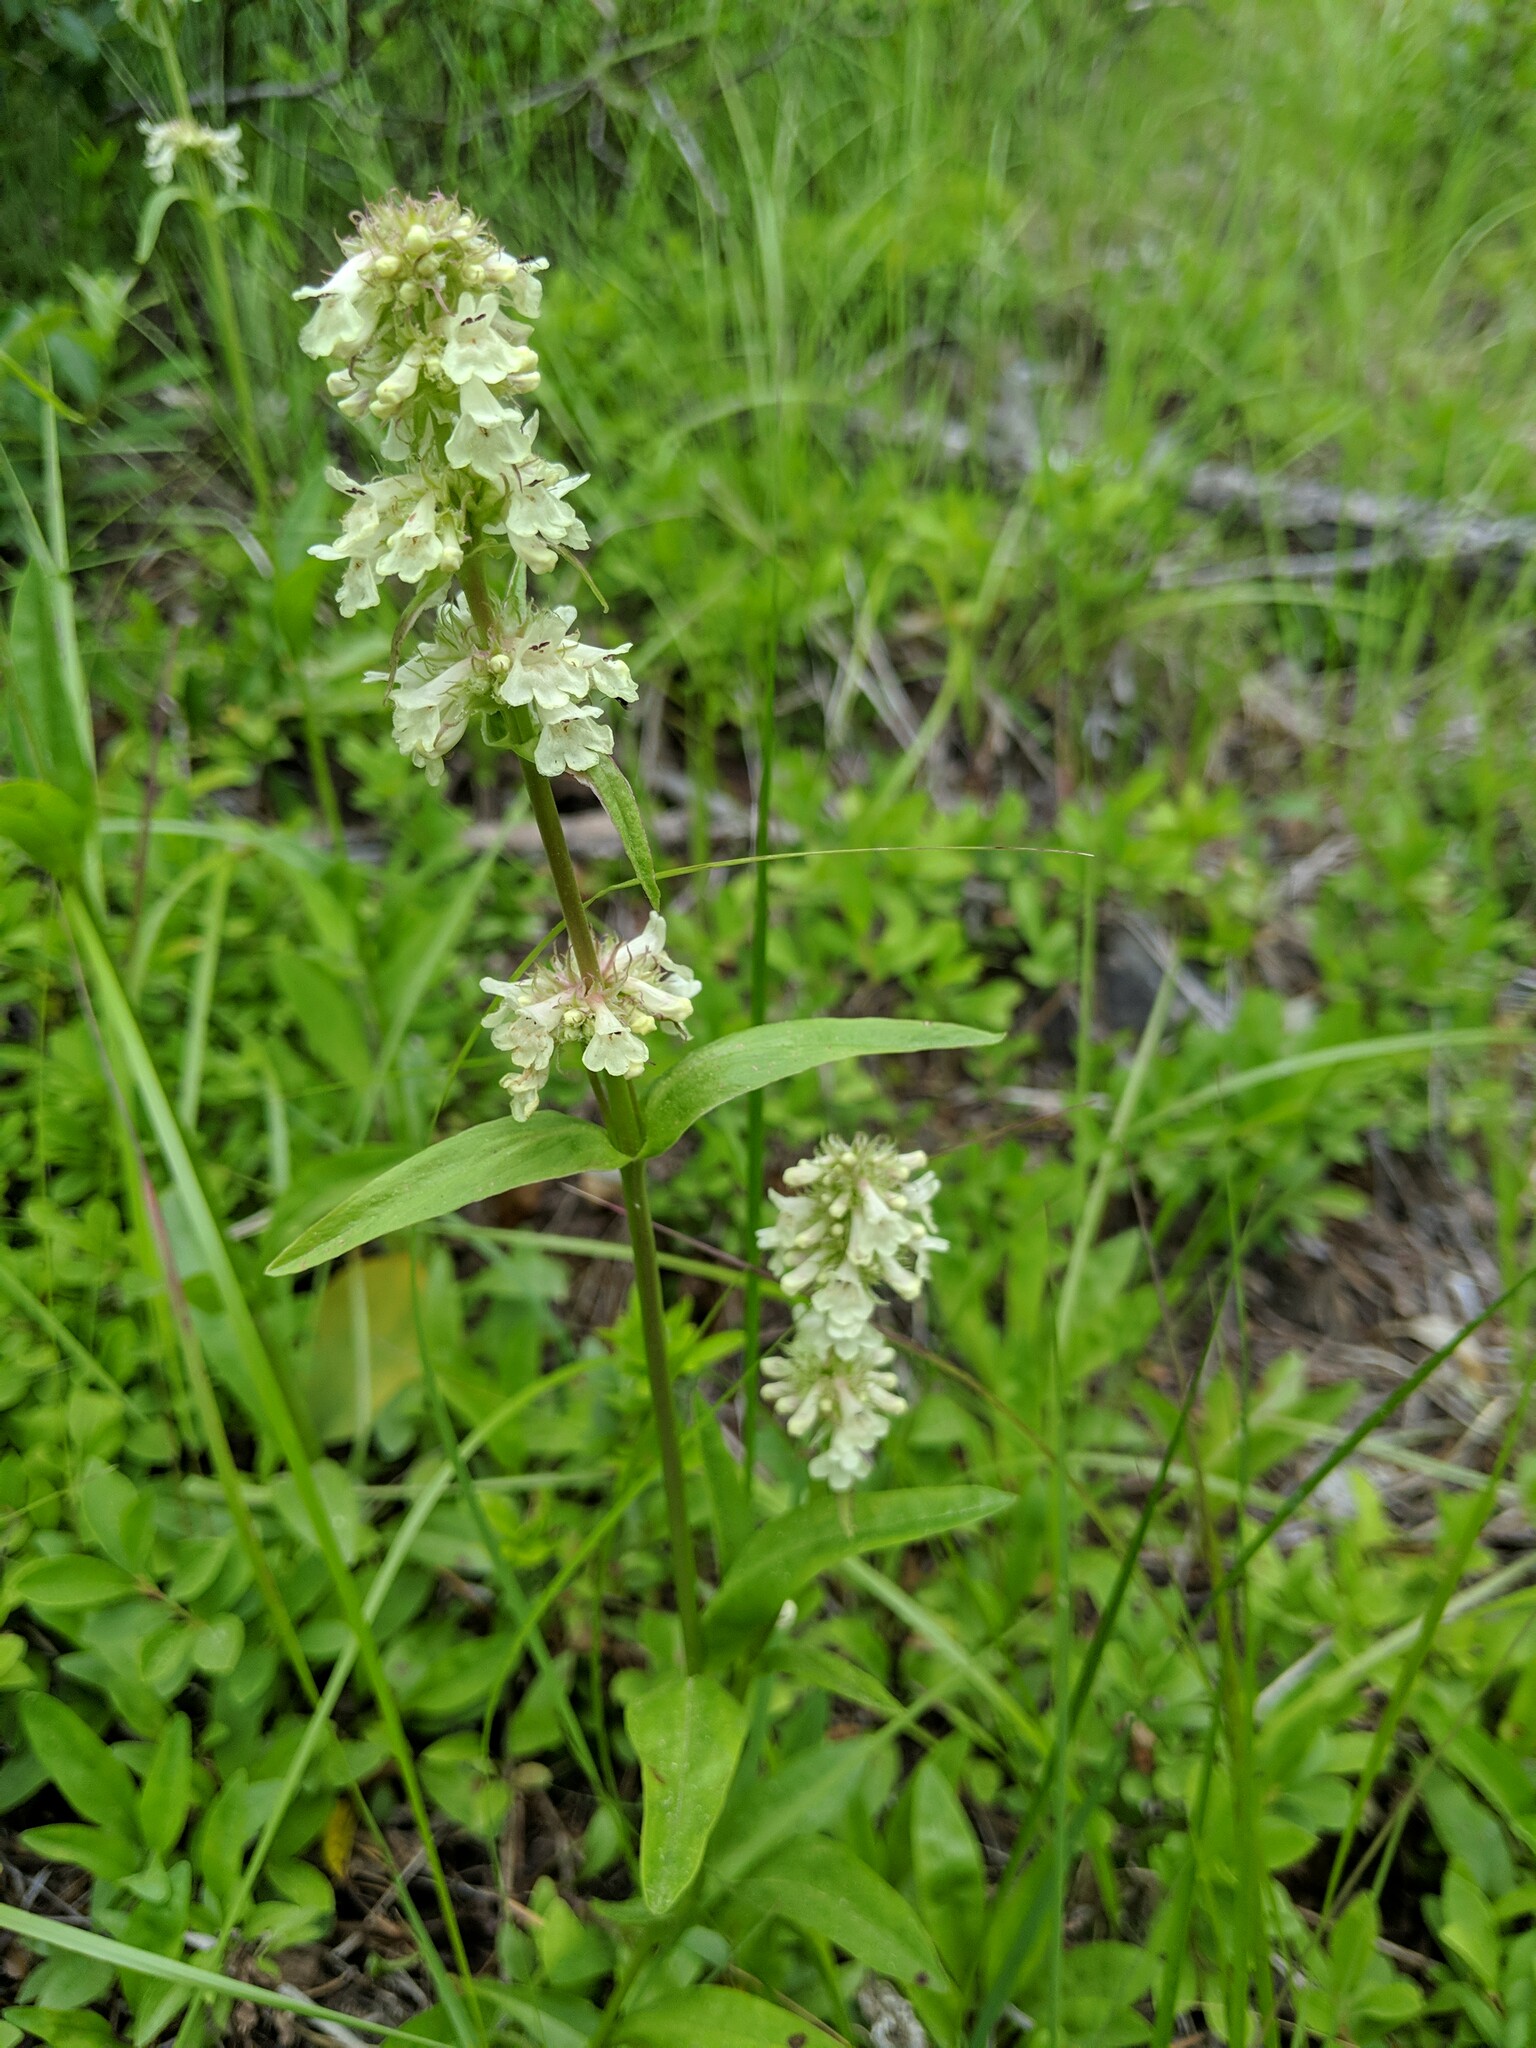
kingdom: Plantae
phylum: Tracheophyta
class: Magnoliopsida
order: Lamiales
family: Plantaginaceae
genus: Penstemon
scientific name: Penstemon confertus
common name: Lesser yellow beardtongue
